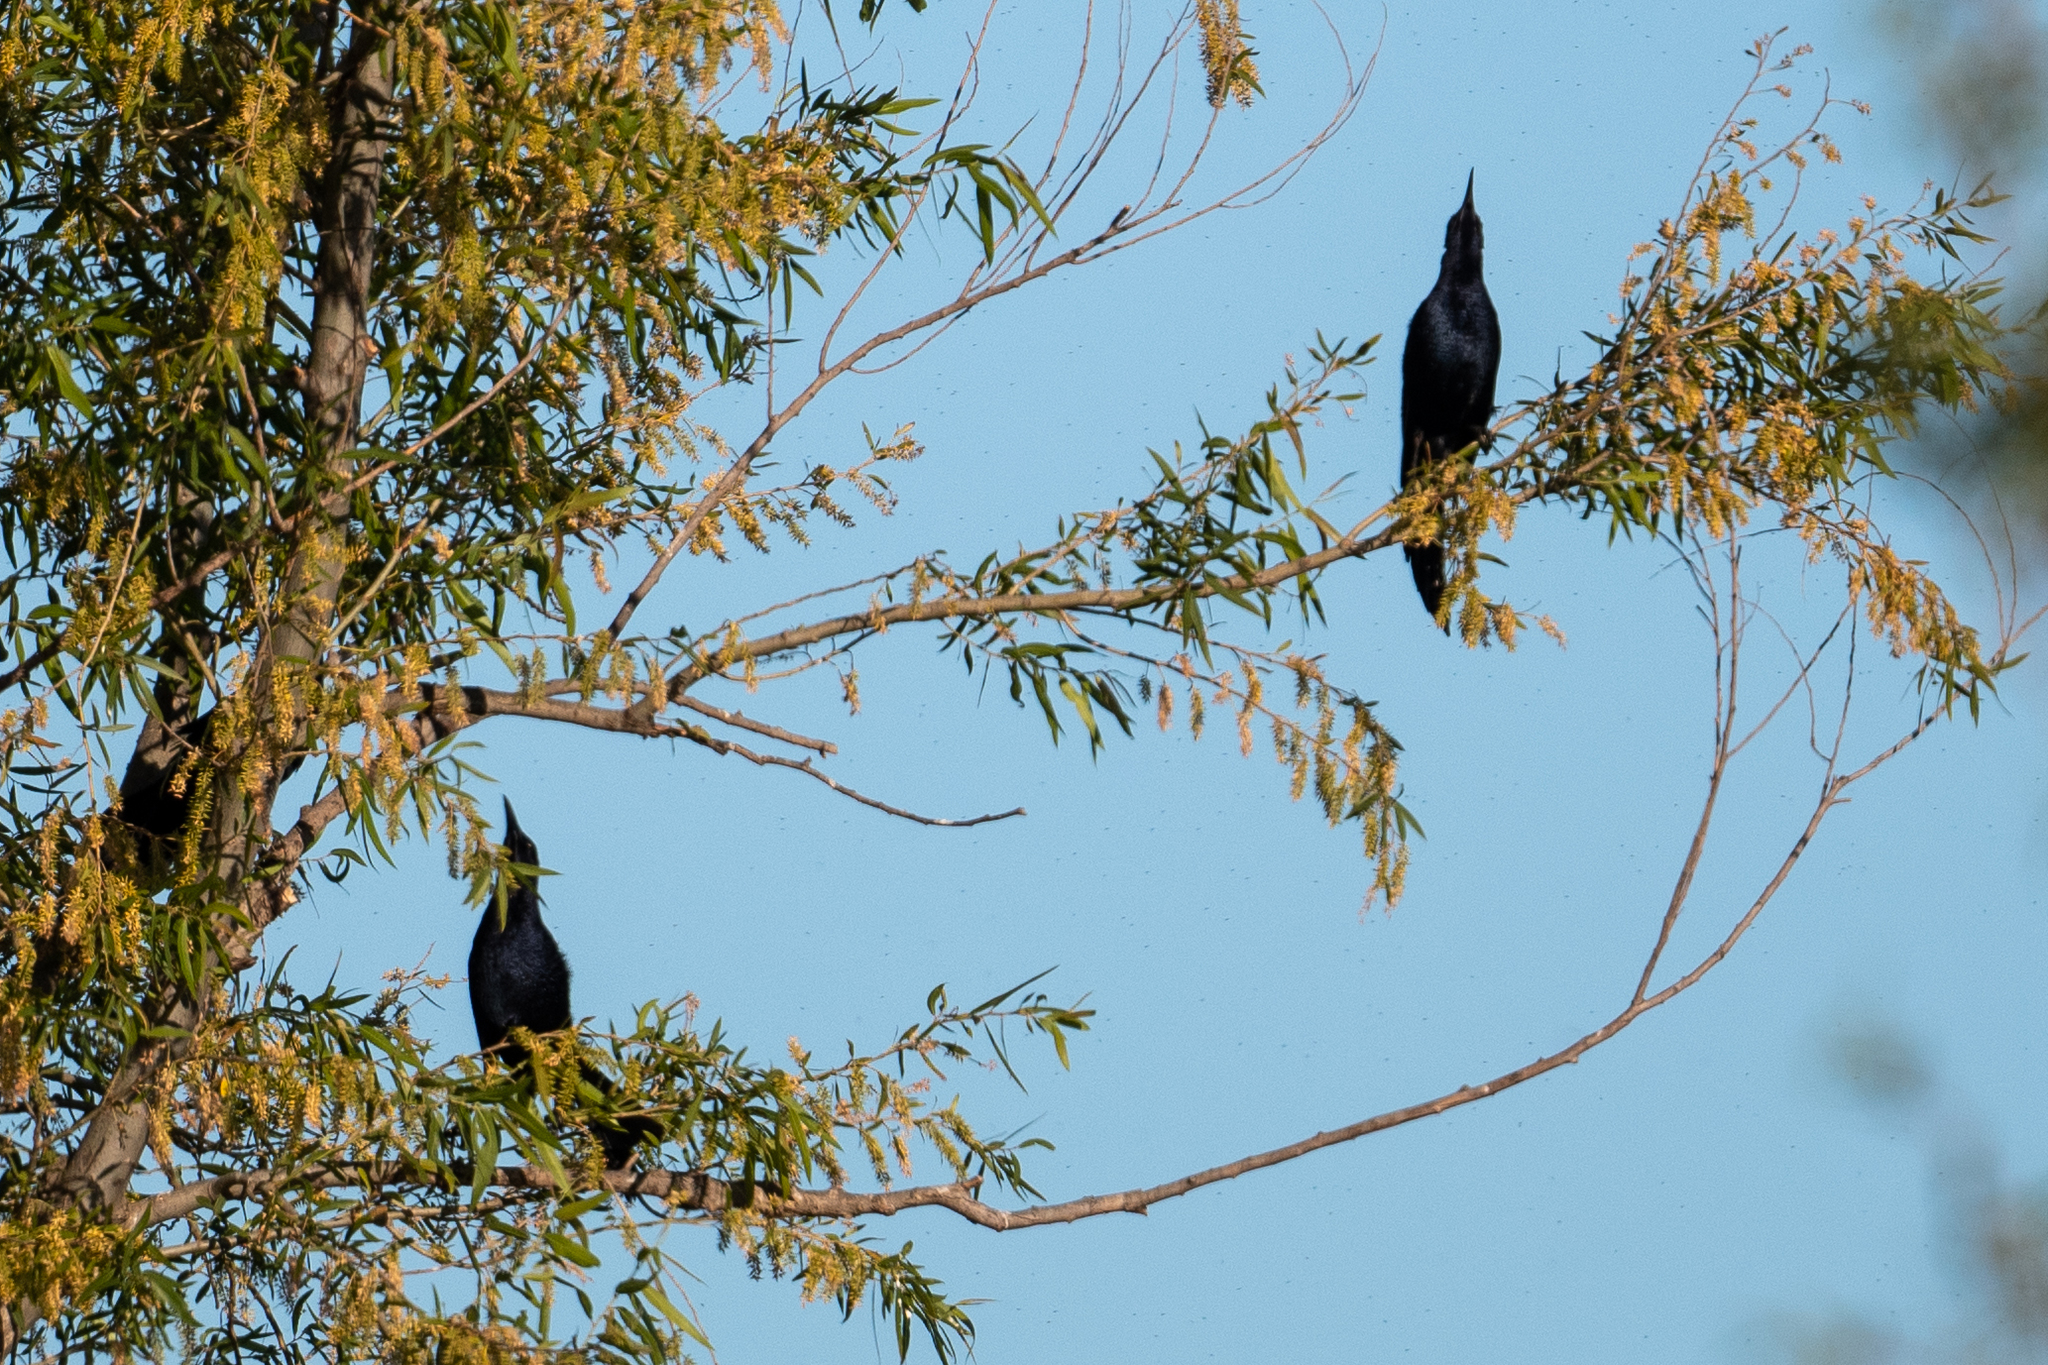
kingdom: Animalia
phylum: Chordata
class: Aves
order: Passeriformes
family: Icteridae
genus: Quiscalus
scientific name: Quiscalus mexicanus
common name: Great-tailed grackle
